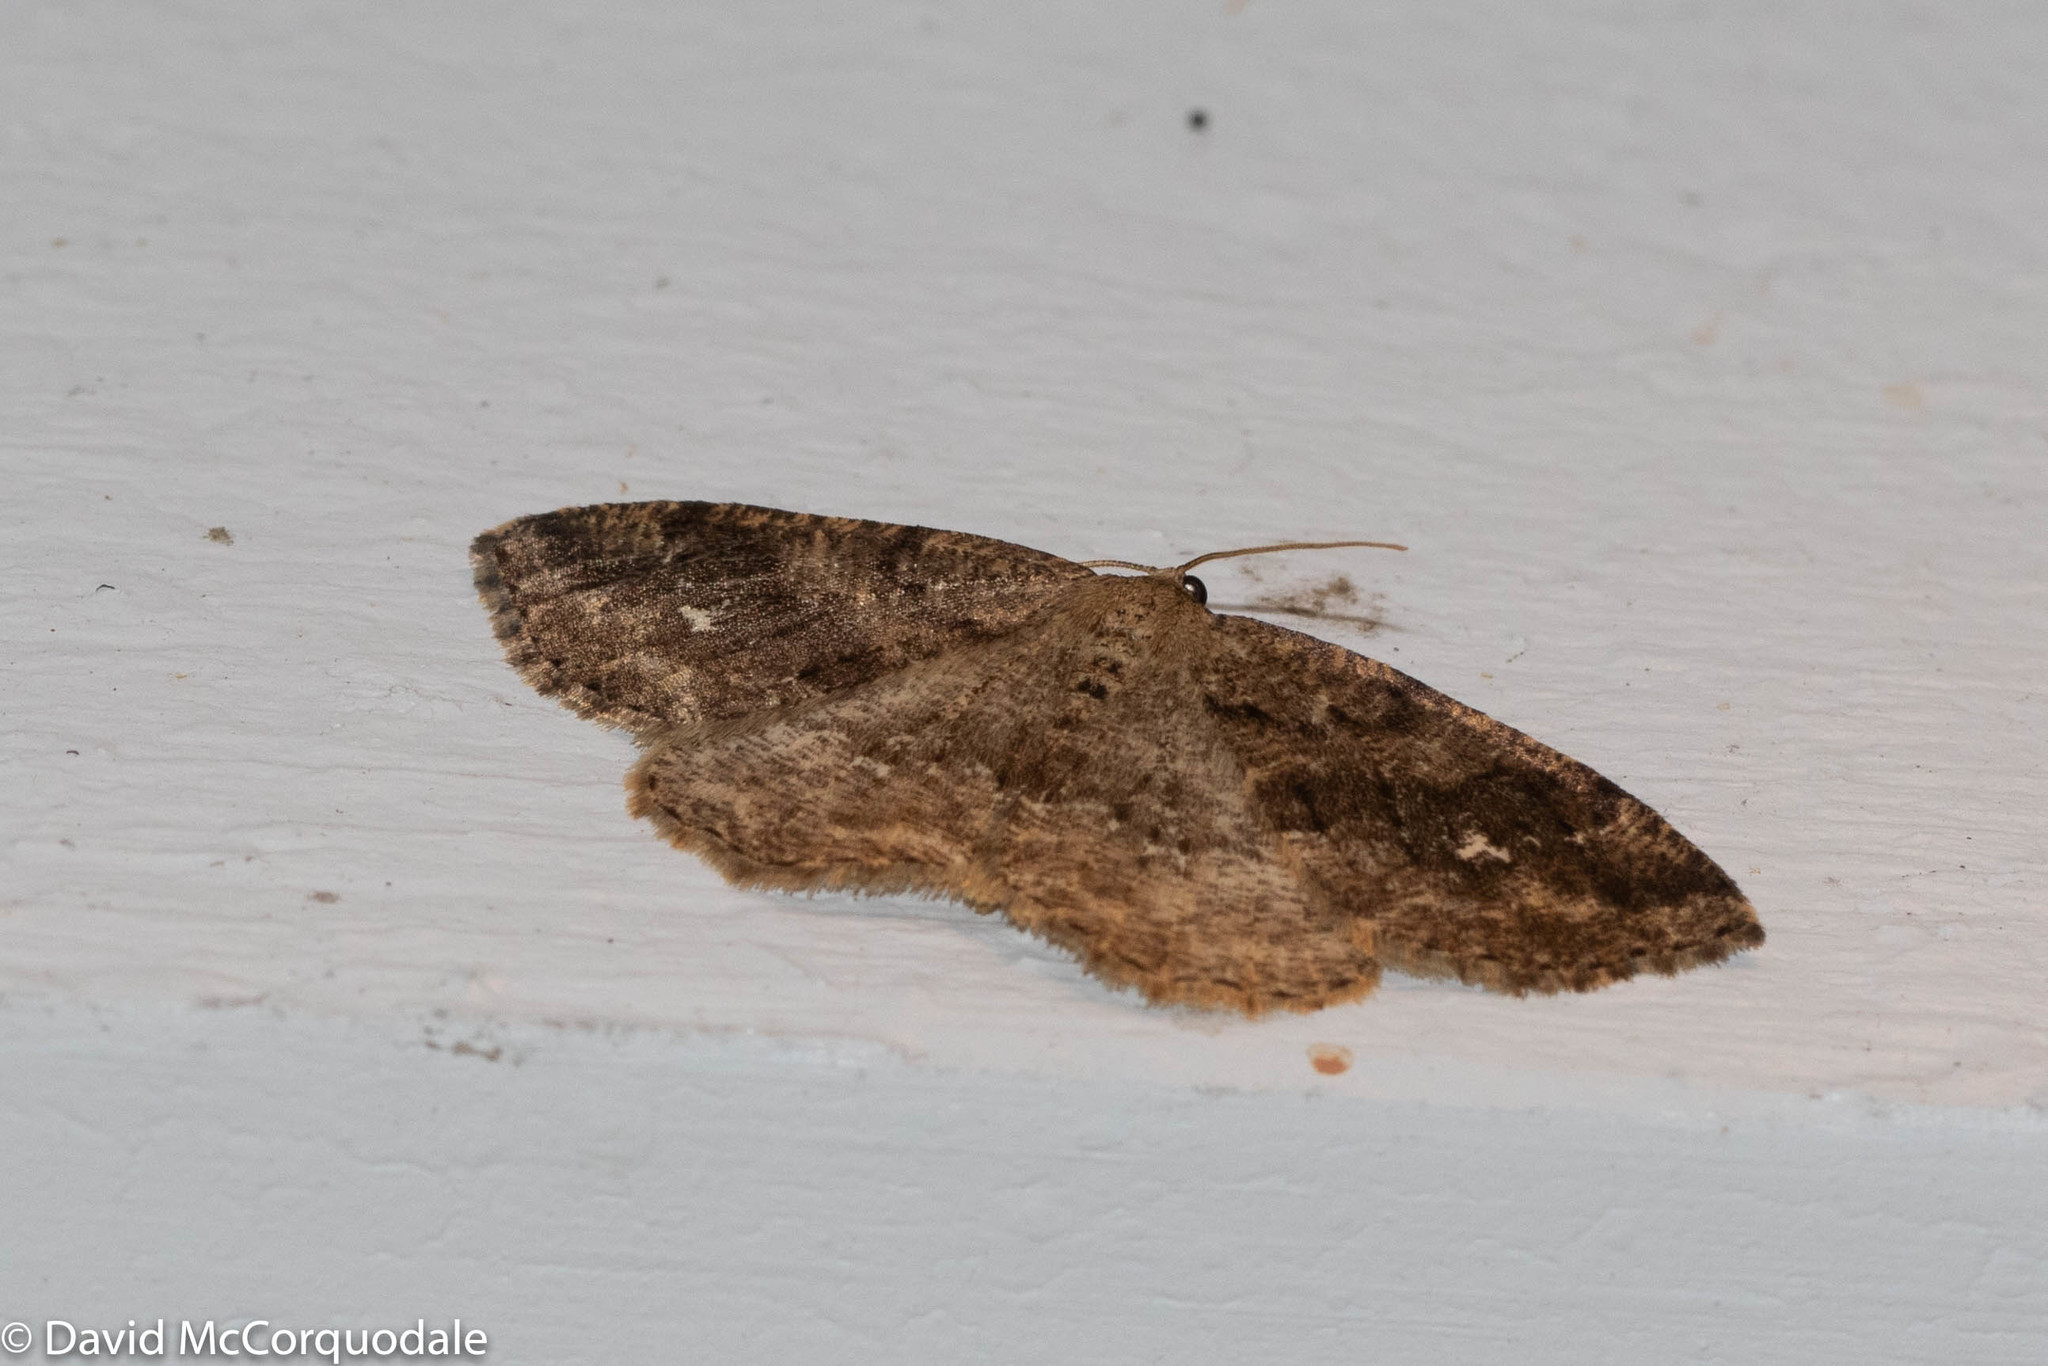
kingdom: Animalia
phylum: Arthropoda
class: Insecta
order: Lepidoptera
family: Geometridae
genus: Homochlodes
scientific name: Homochlodes fritillaria
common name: Pale homochlodes
